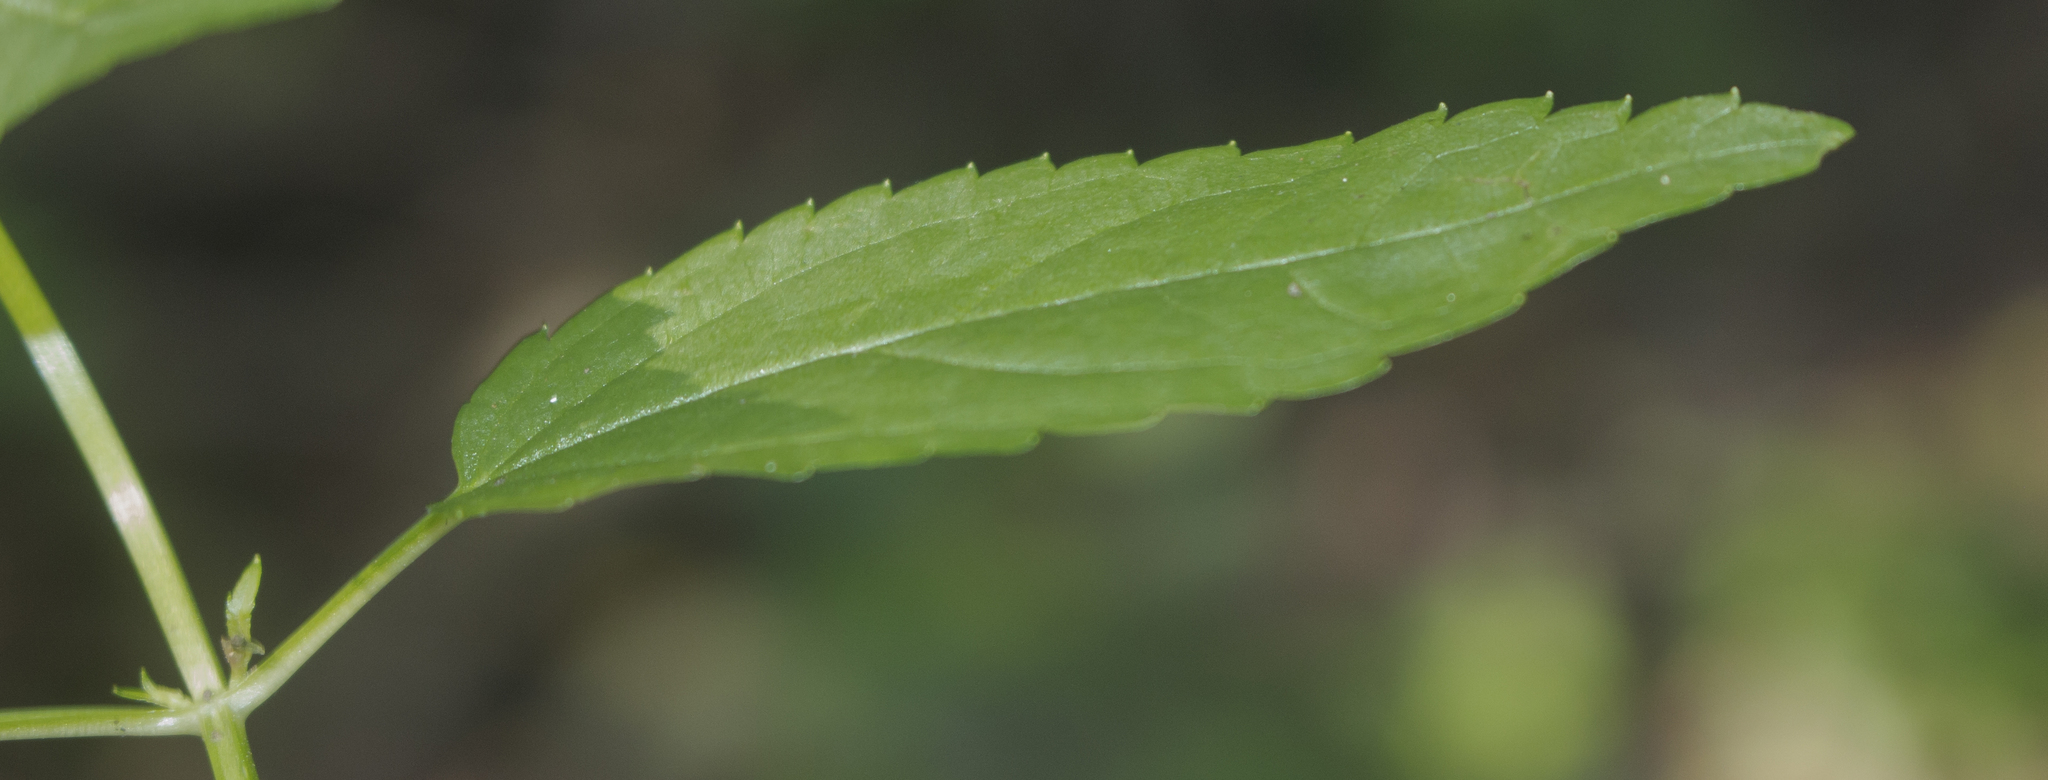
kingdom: Plantae
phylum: Tracheophyta
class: Magnoliopsida
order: Lamiales
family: Lamiaceae
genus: Stachys
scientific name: Stachys tenuifolia
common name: Smooth hedge-nettle
